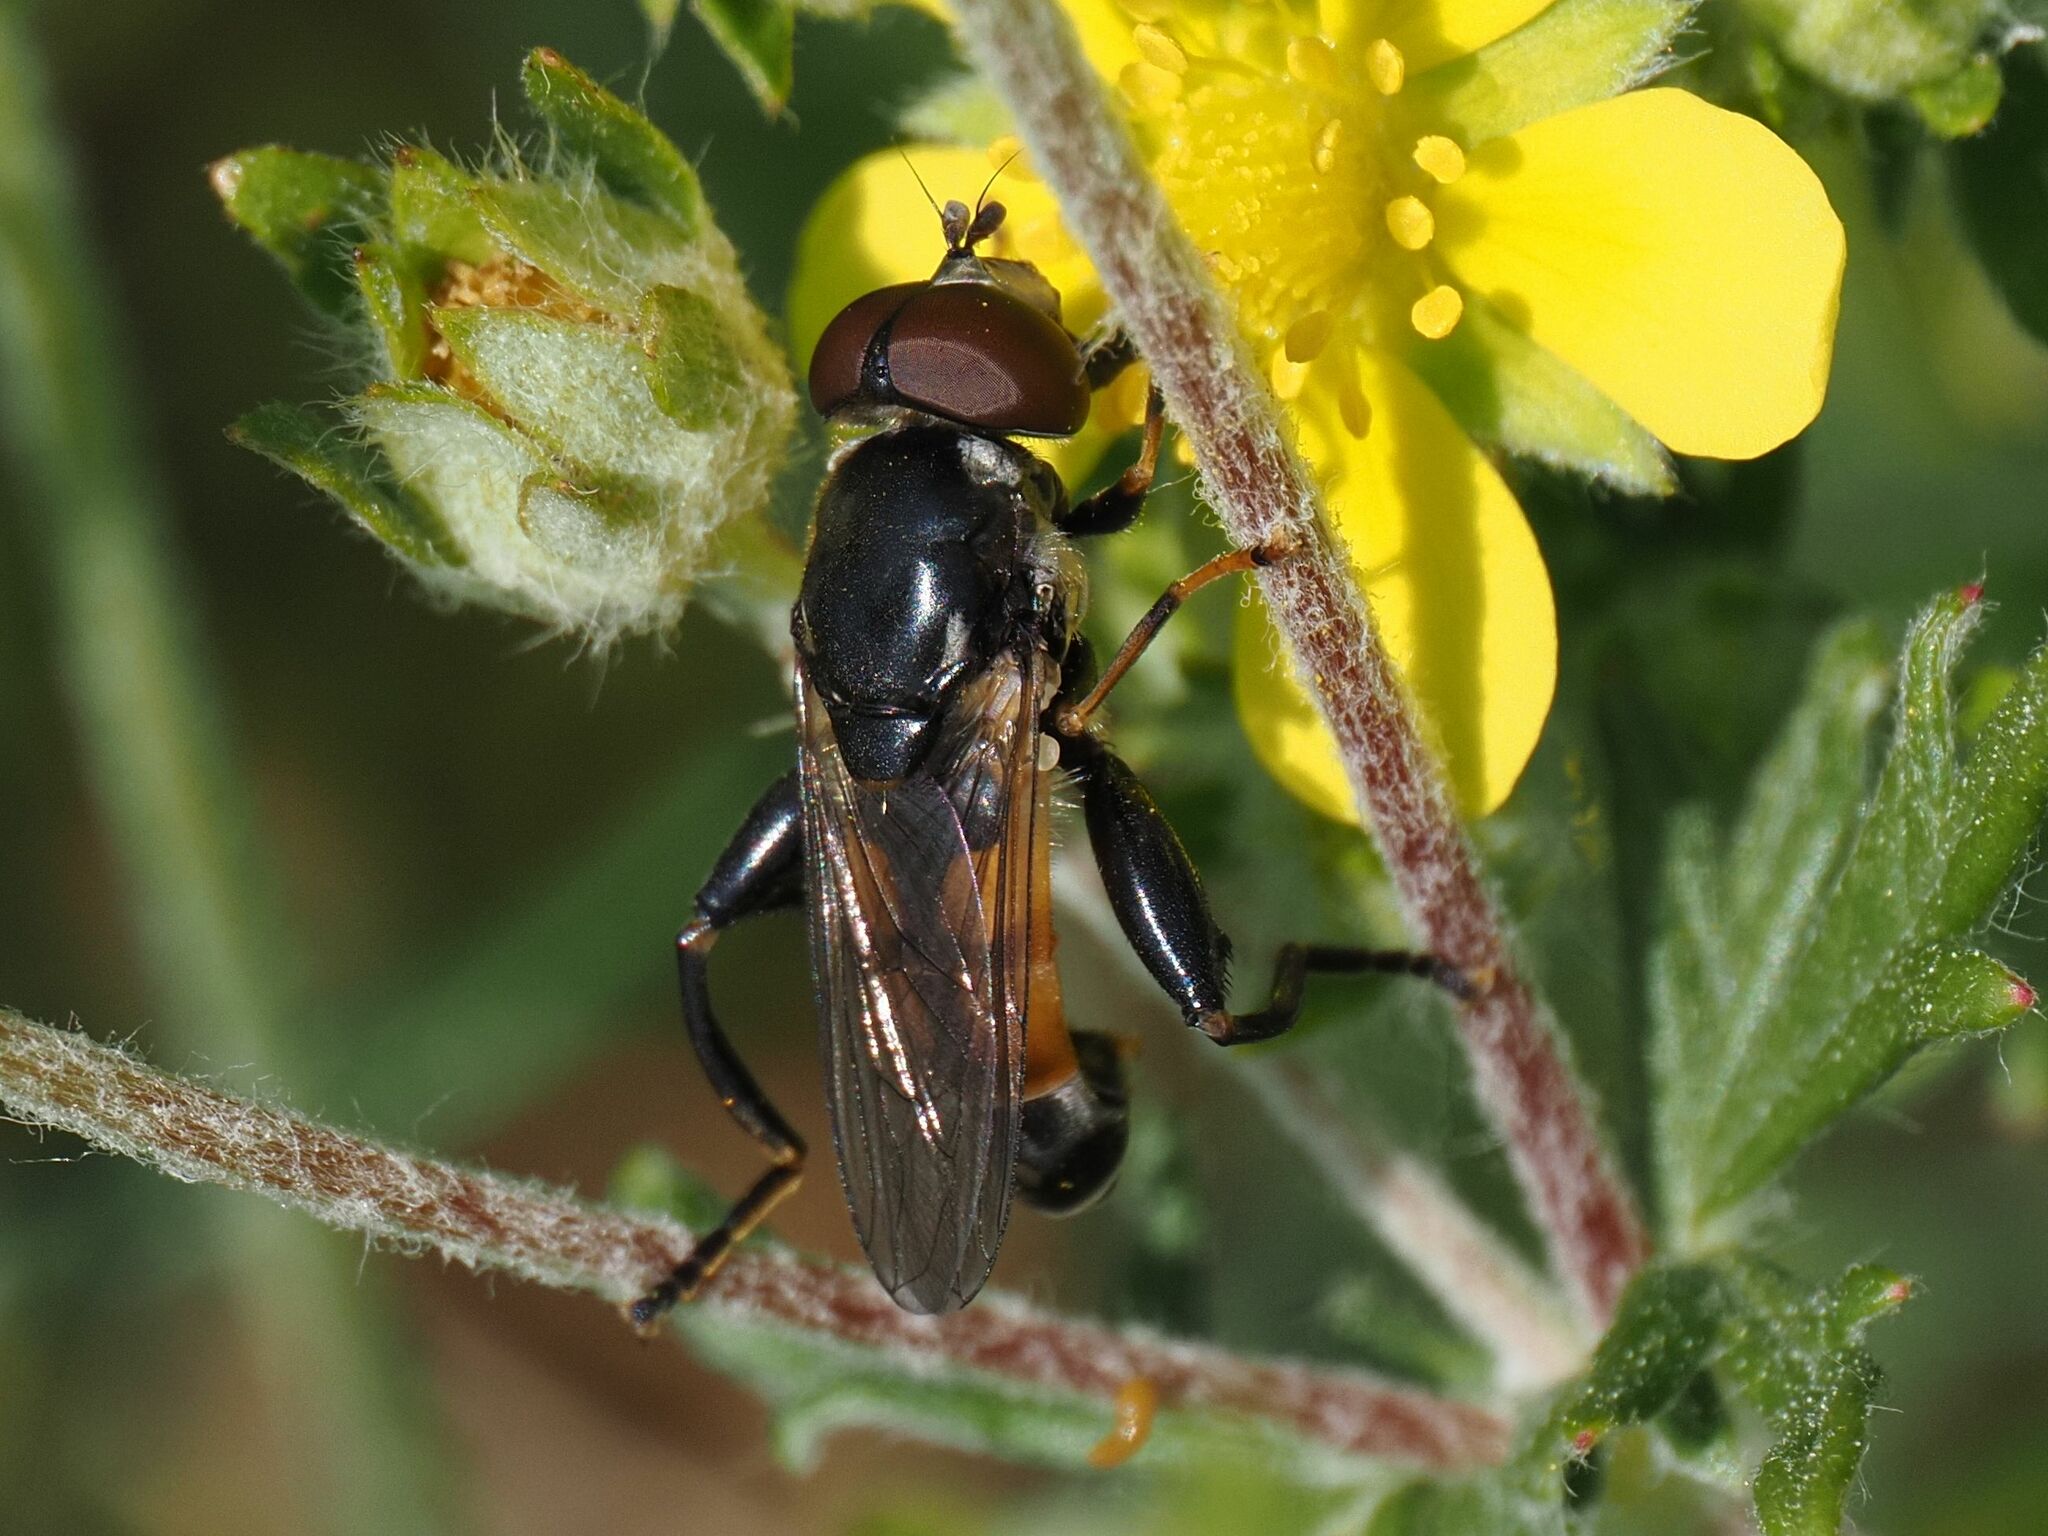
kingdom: Animalia
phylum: Arthropoda
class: Insecta
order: Diptera
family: Syrphidae
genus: Tropidia
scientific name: Tropidia scita
